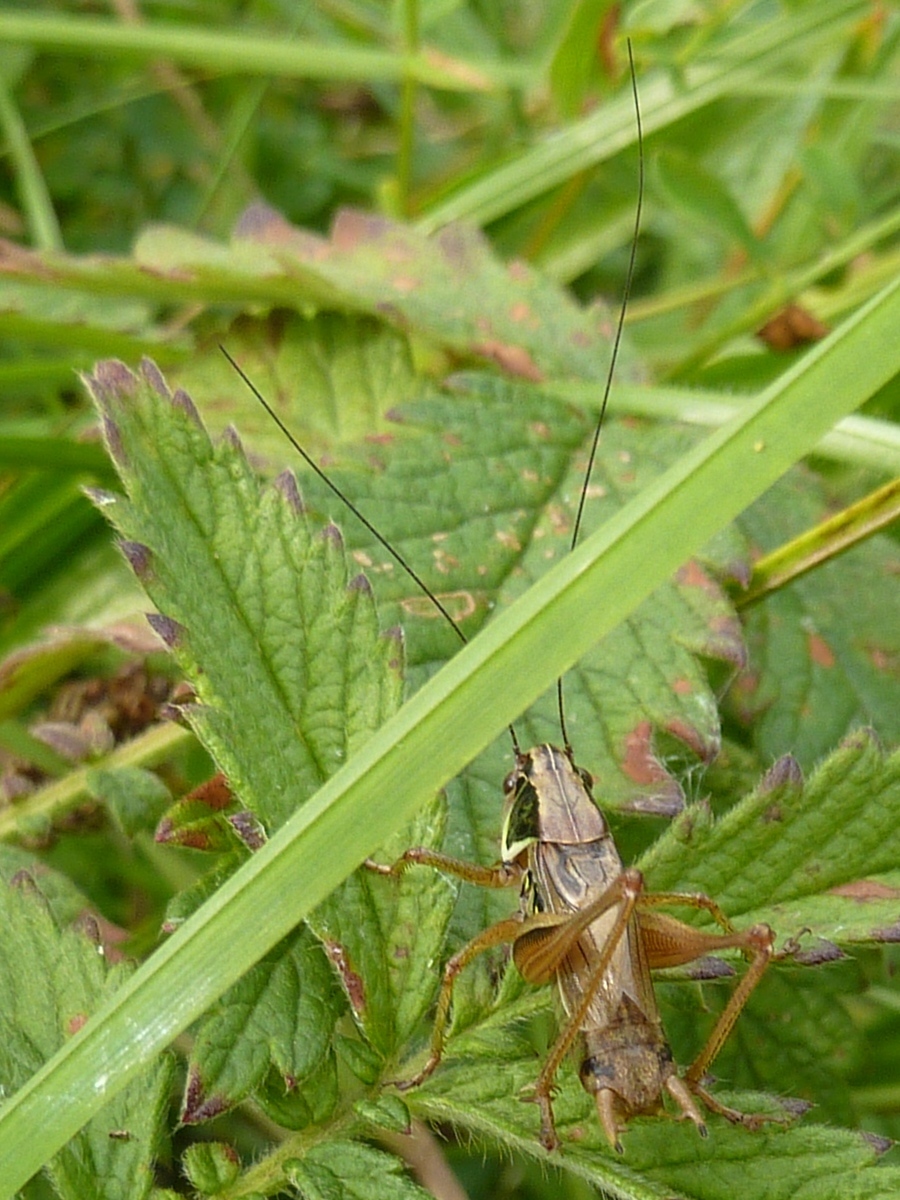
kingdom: Animalia
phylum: Arthropoda
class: Insecta
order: Orthoptera
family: Tettigoniidae
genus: Roeseliana
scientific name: Roeseliana roeselii
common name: Roesel's bush cricket
